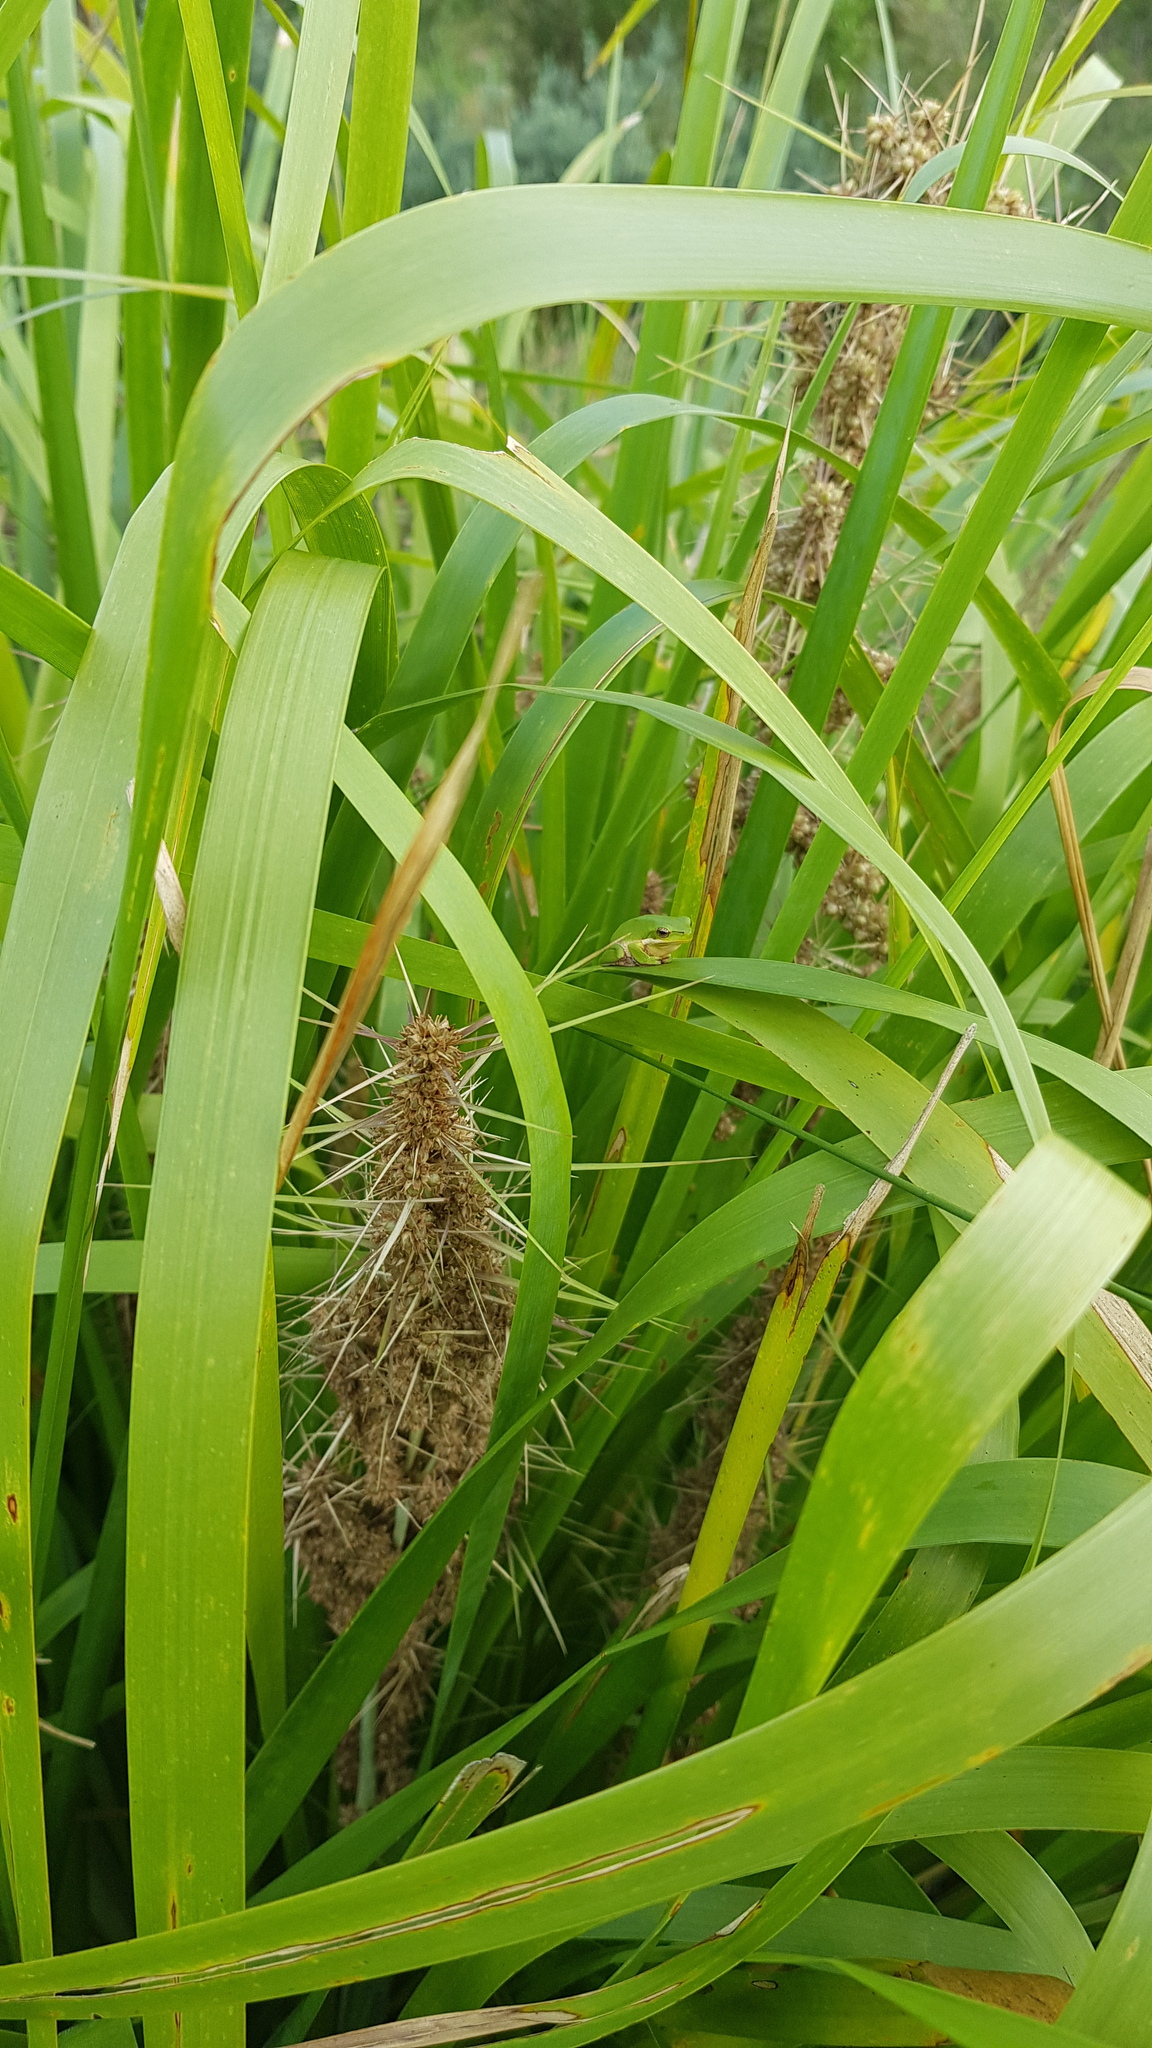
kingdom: Animalia
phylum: Chordata
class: Amphibia
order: Anura
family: Pelodryadidae
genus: Litoria
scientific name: Litoria fallax
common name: Eastern dwarf treefrog
